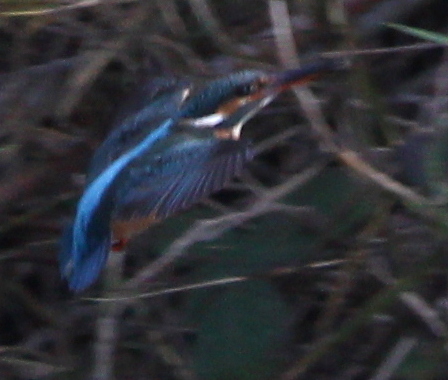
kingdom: Animalia
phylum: Chordata
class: Aves
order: Coraciiformes
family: Alcedinidae
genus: Alcedo
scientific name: Alcedo atthis
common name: Common kingfisher
